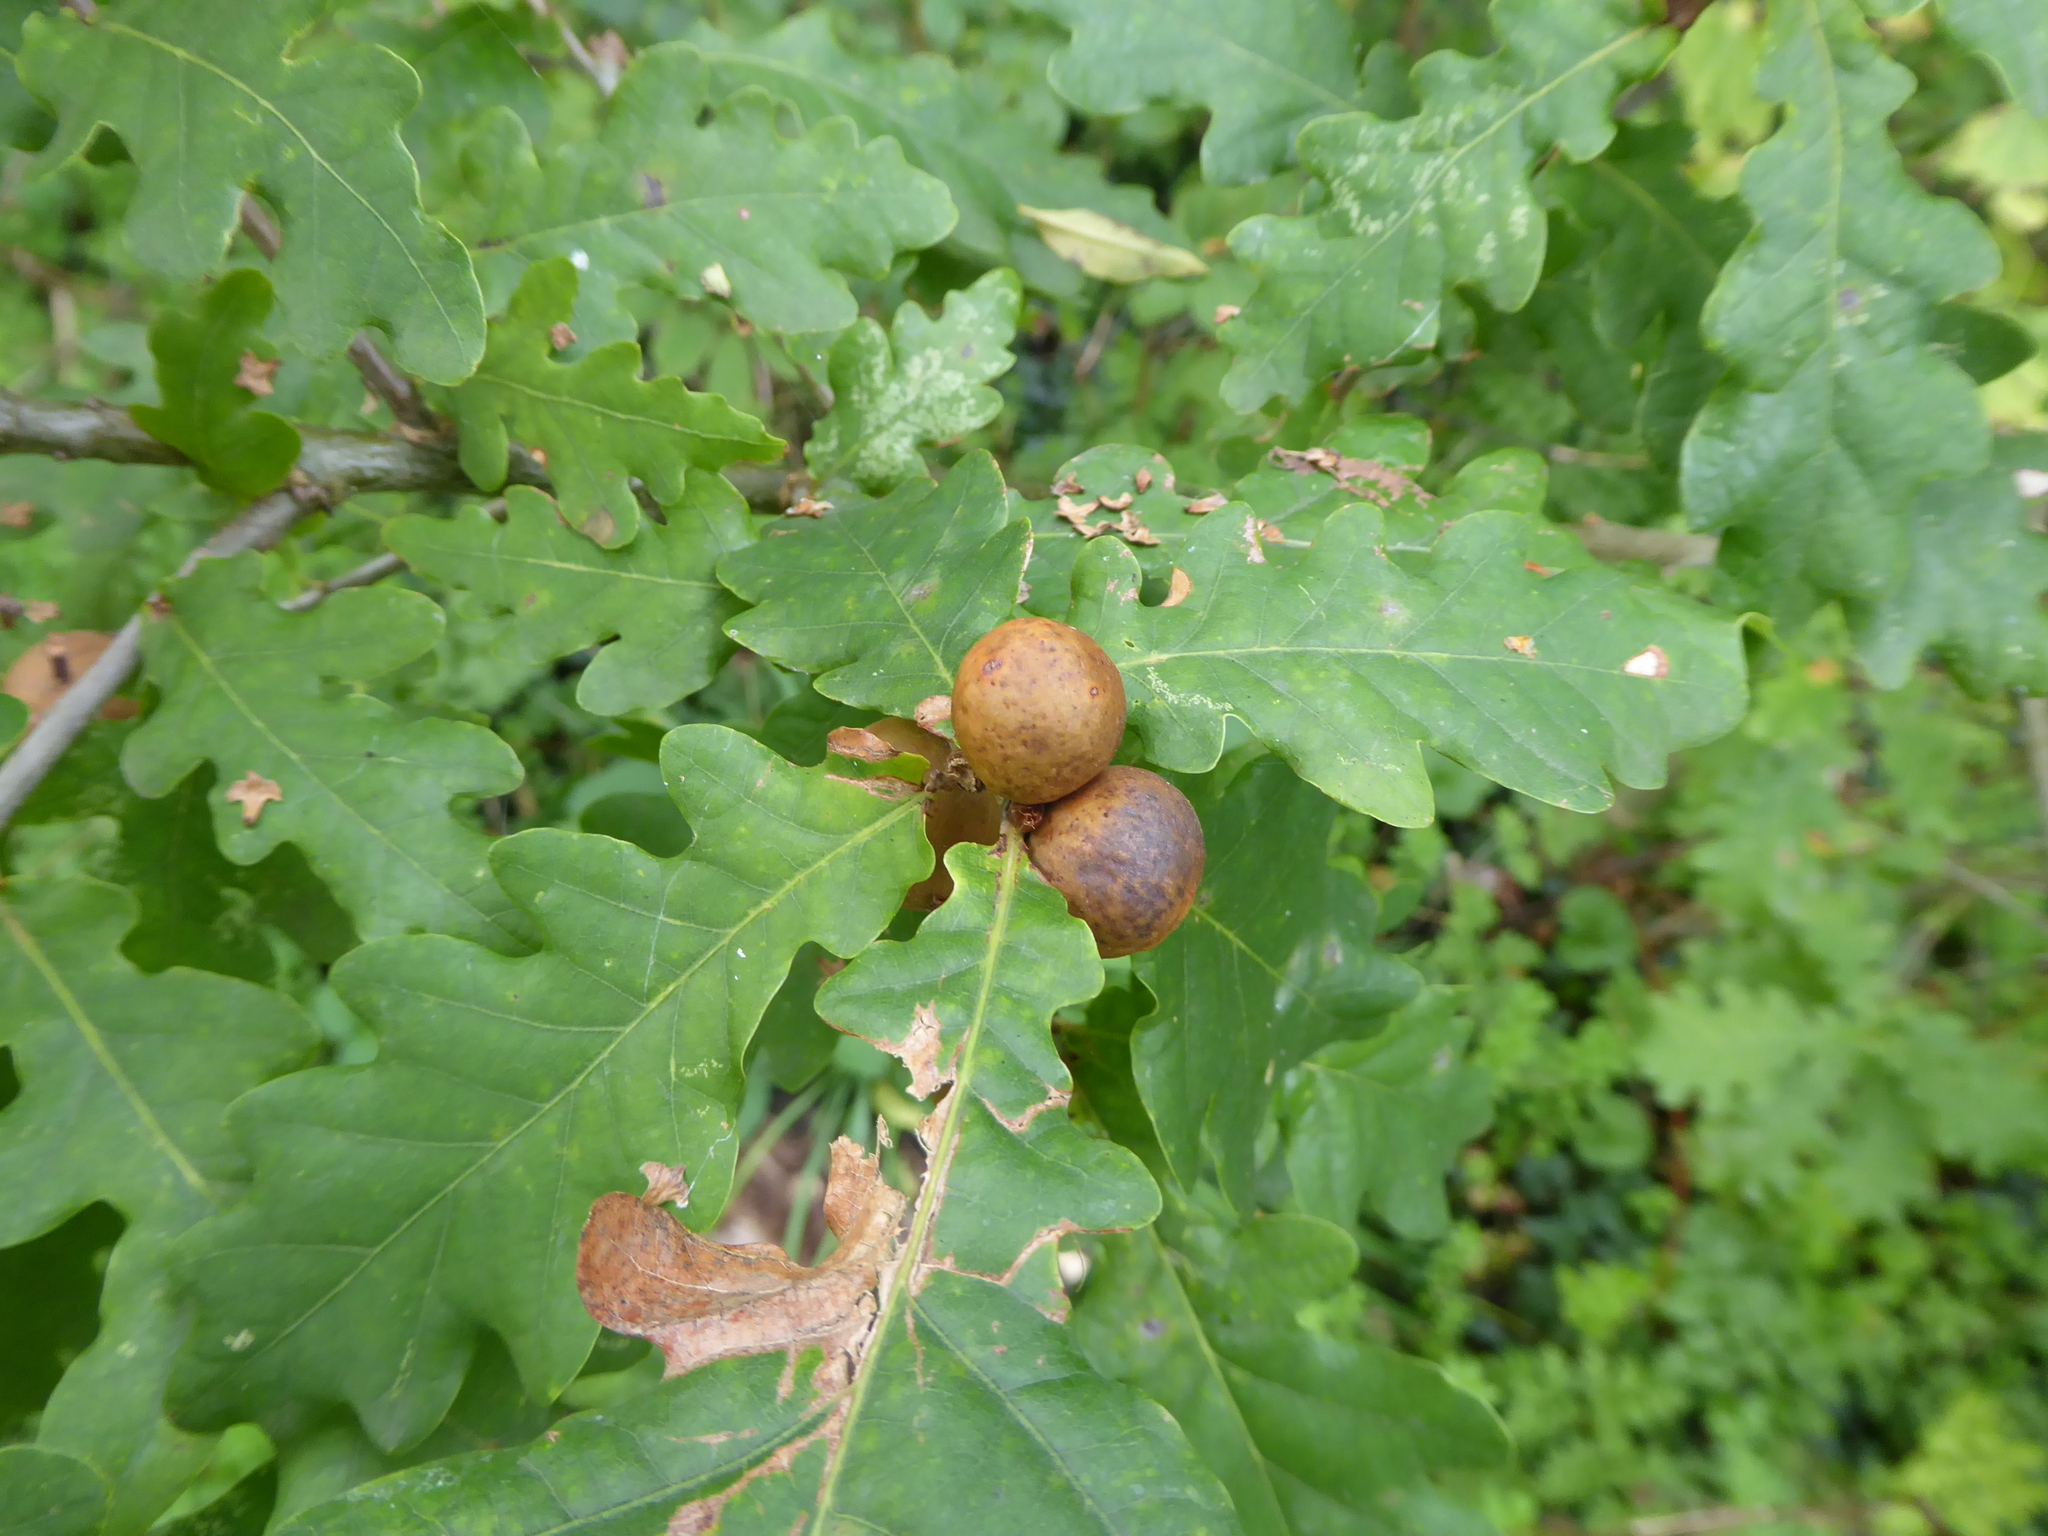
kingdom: Animalia
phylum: Arthropoda
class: Insecta
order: Hymenoptera
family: Cynipidae
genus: Andricus
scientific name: Andricus kollari
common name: Marble gall
